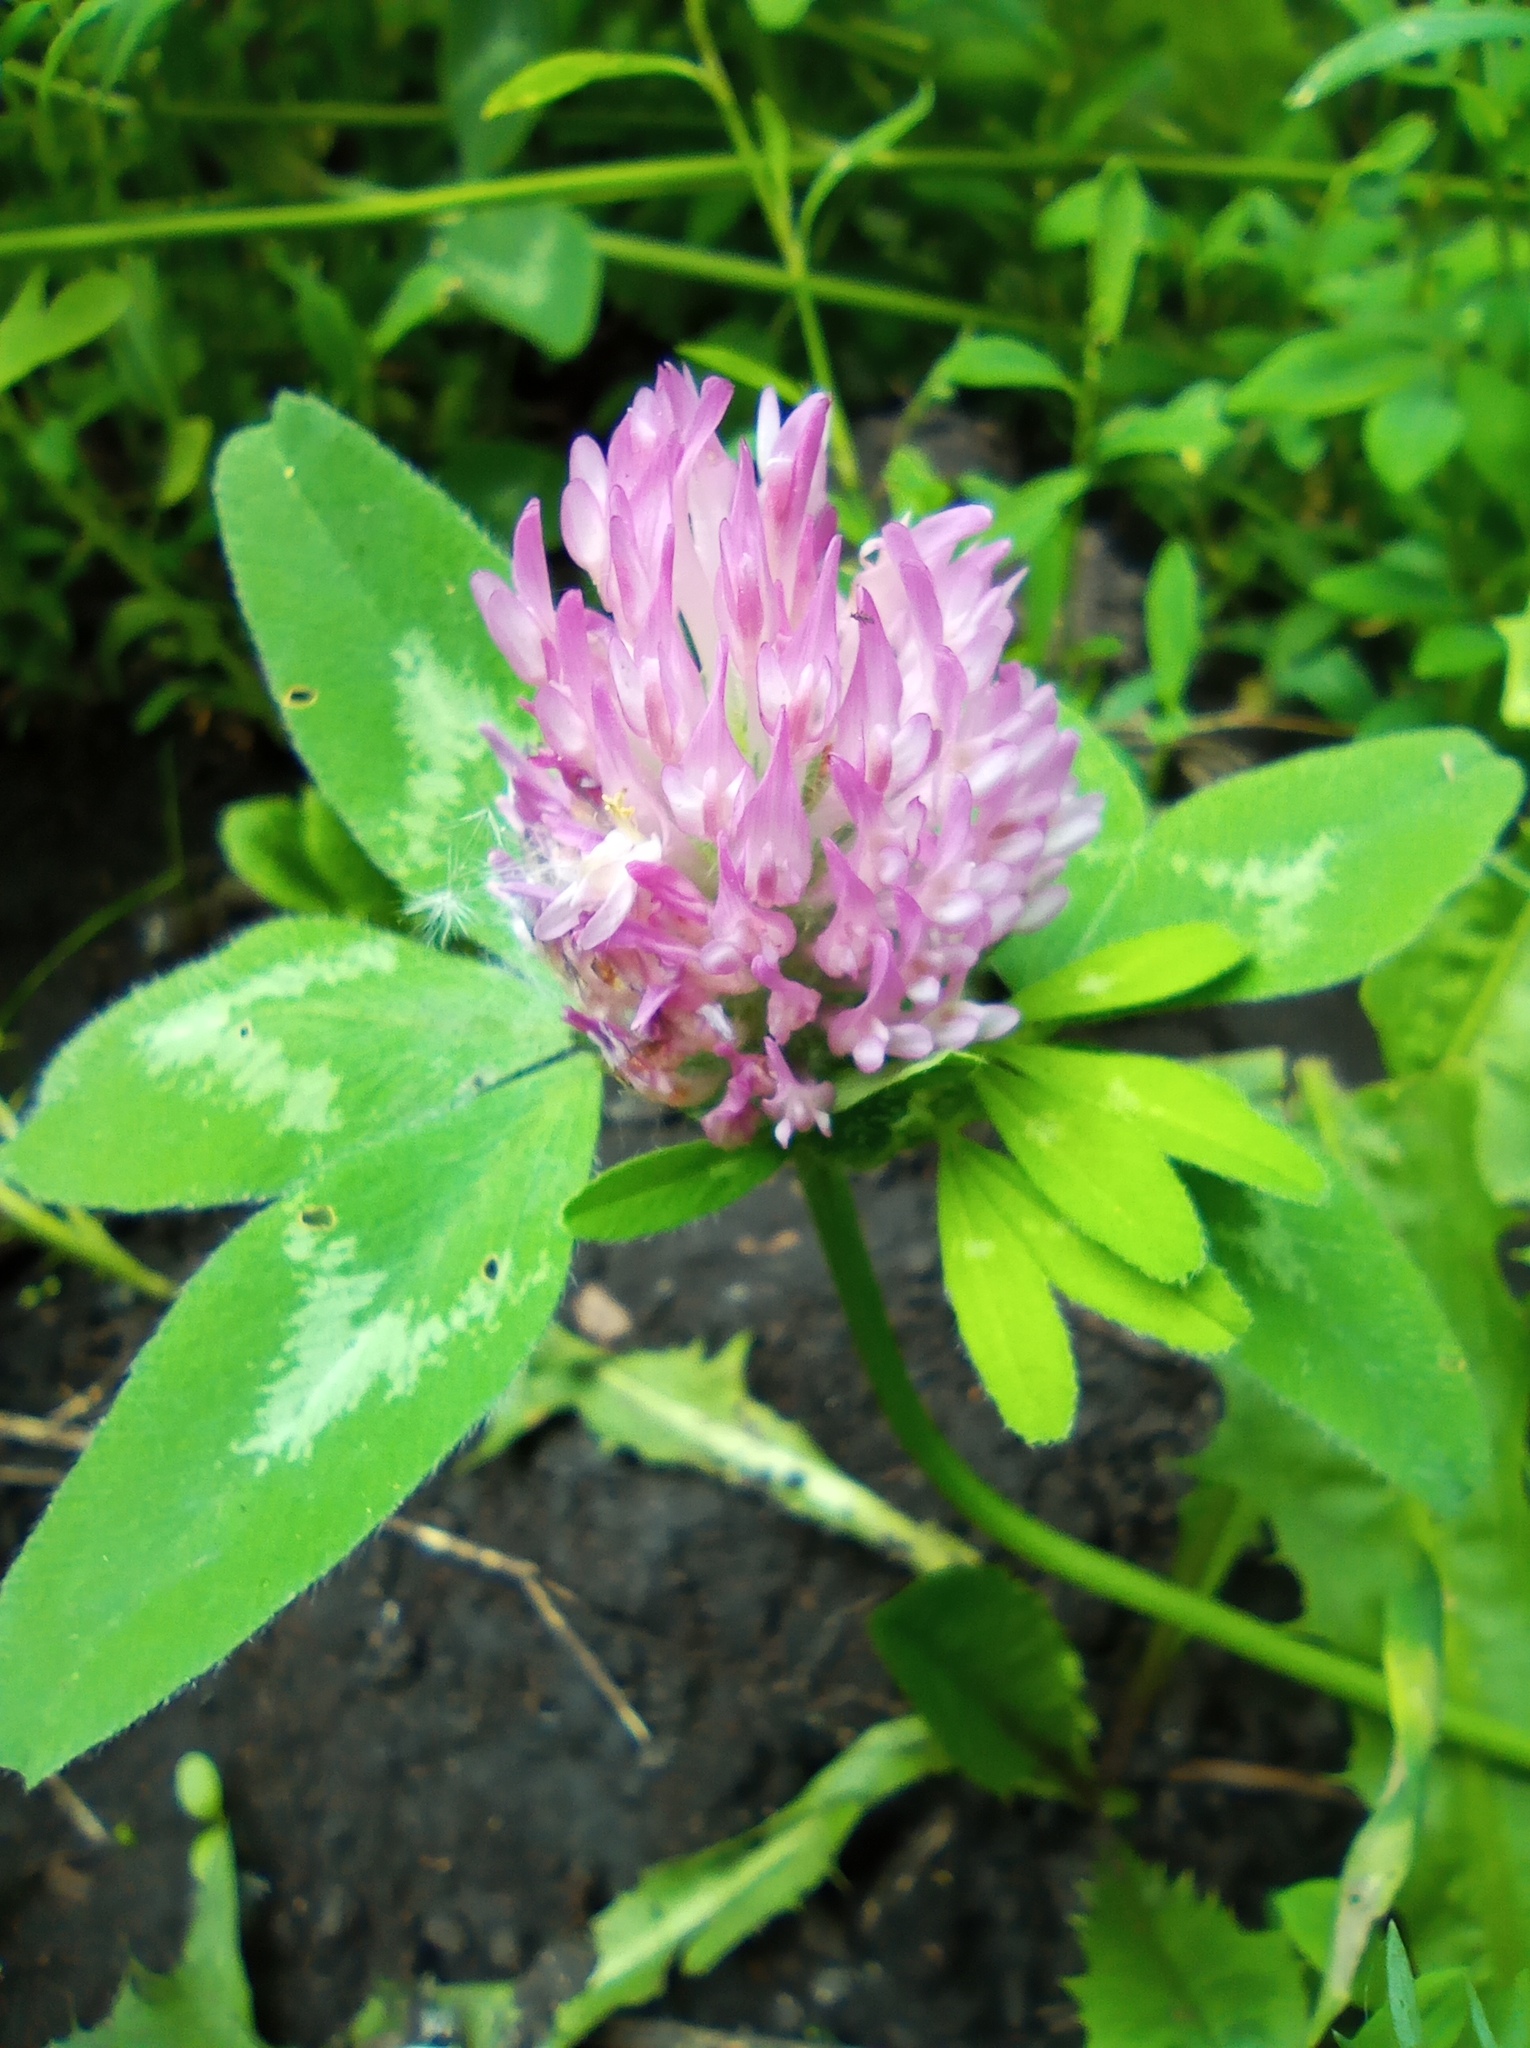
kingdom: Plantae
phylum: Tracheophyta
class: Magnoliopsida
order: Fabales
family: Fabaceae
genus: Trifolium
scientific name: Trifolium pratense
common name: Red clover
